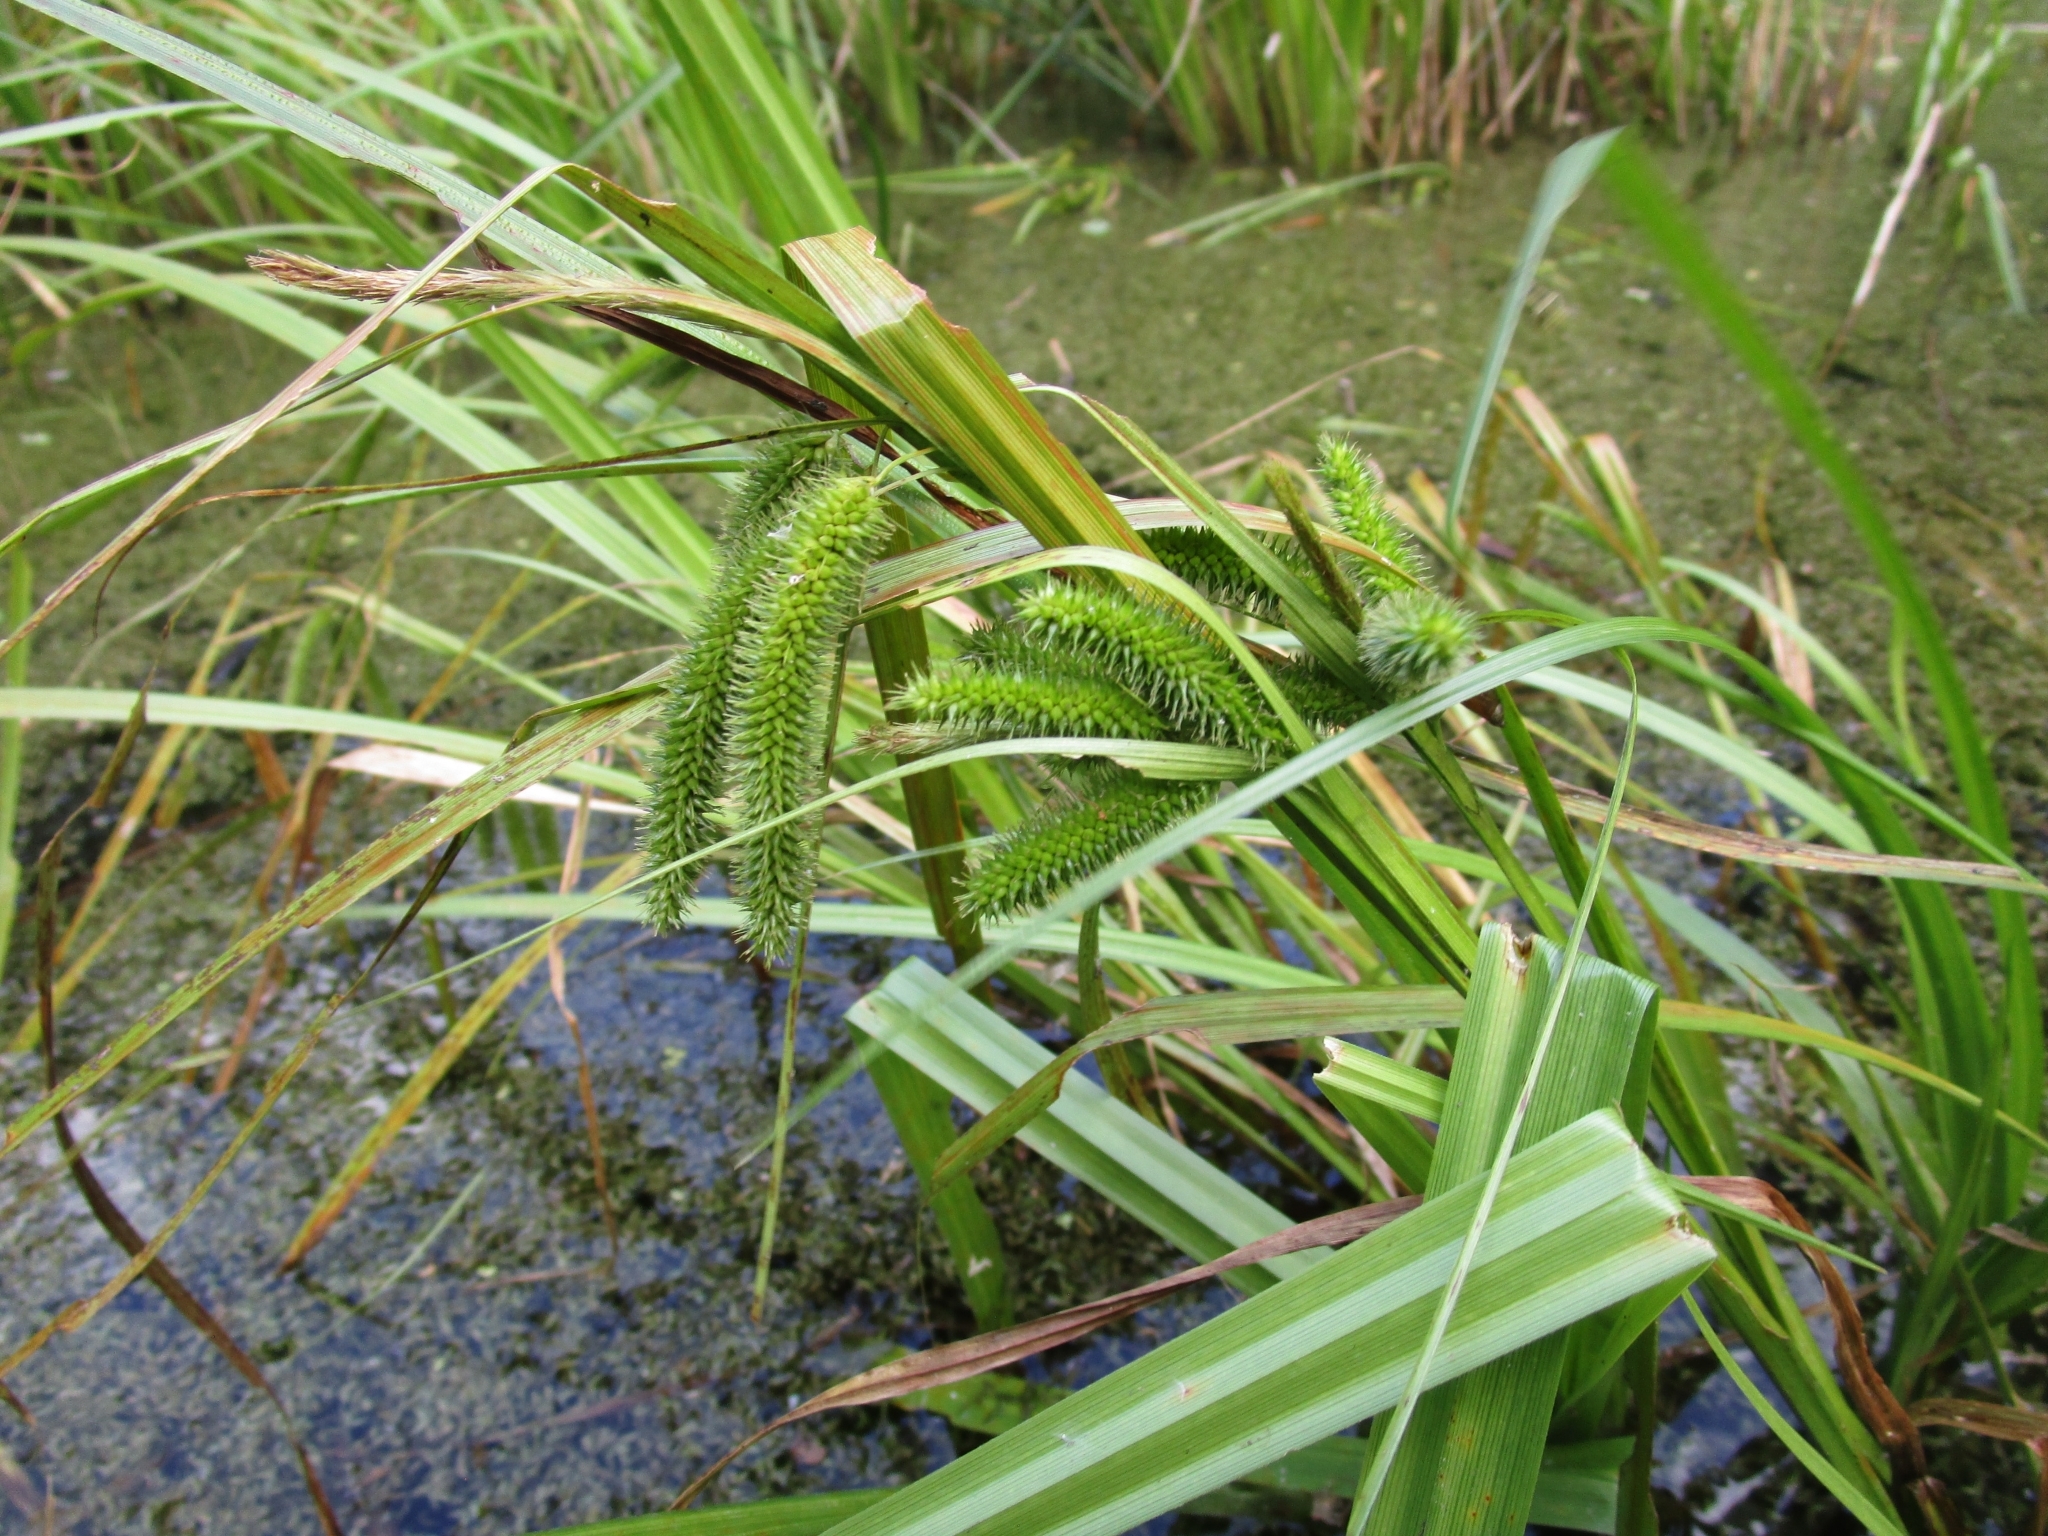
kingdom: Plantae
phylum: Tracheophyta
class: Liliopsida
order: Poales
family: Cyperaceae
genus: Carex
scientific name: Carex pseudocyperus
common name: Cyperus sedge
